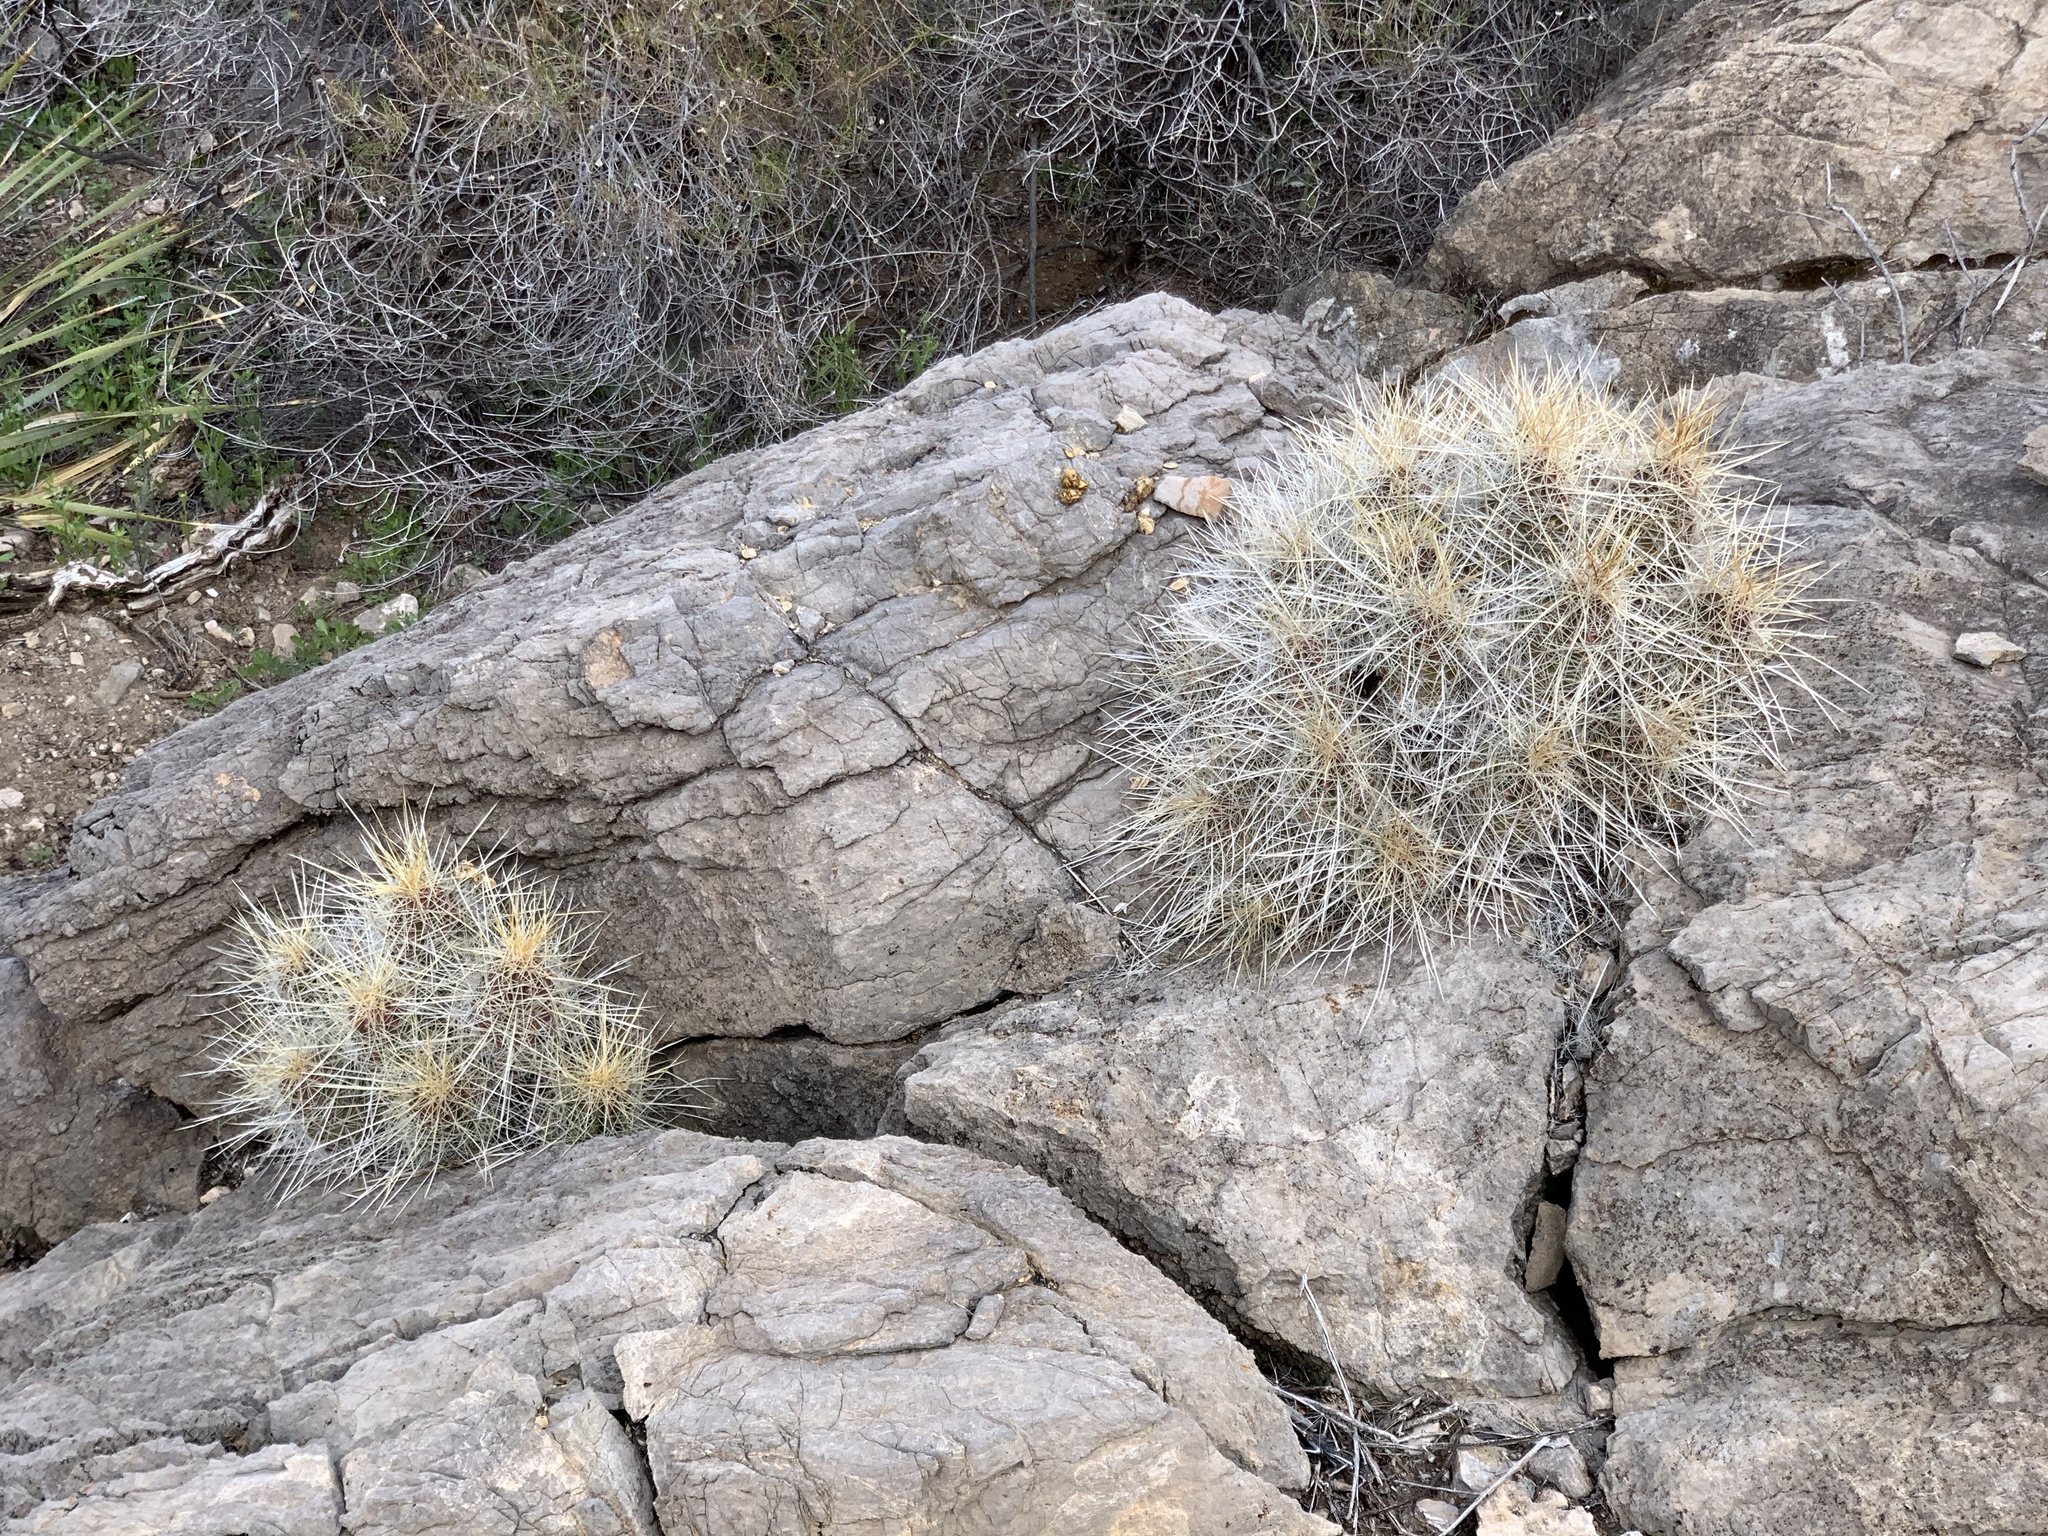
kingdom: Plantae
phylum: Tracheophyta
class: Magnoliopsida
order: Caryophyllales
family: Cactaceae
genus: Echinocereus
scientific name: Echinocereus stramineus
